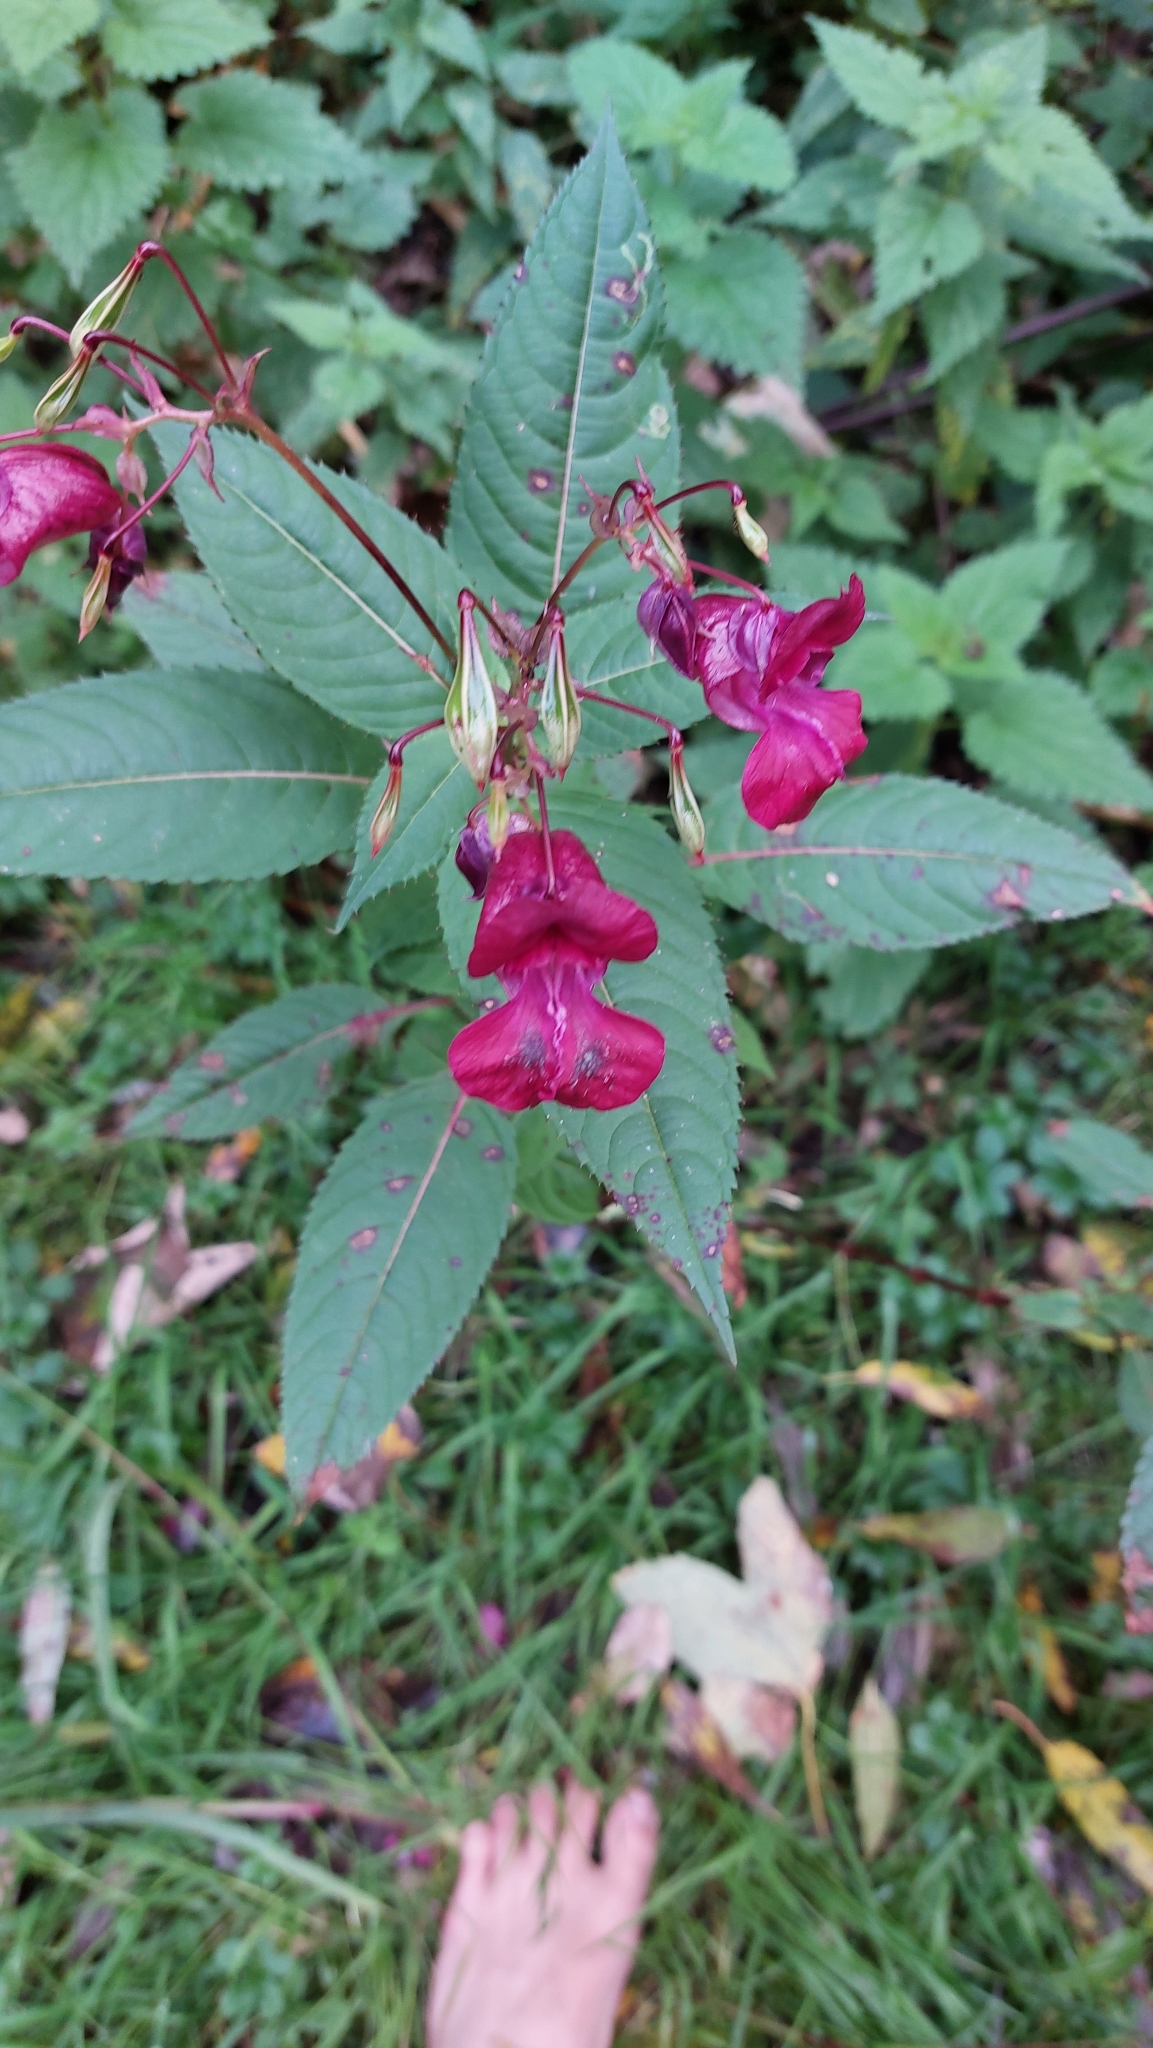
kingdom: Plantae
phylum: Tracheophyta
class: Magnoliopsida
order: Ericales
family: Balsaminaceae
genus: Impatiens
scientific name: Impatiens glandulifera
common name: Himalayan balsam
